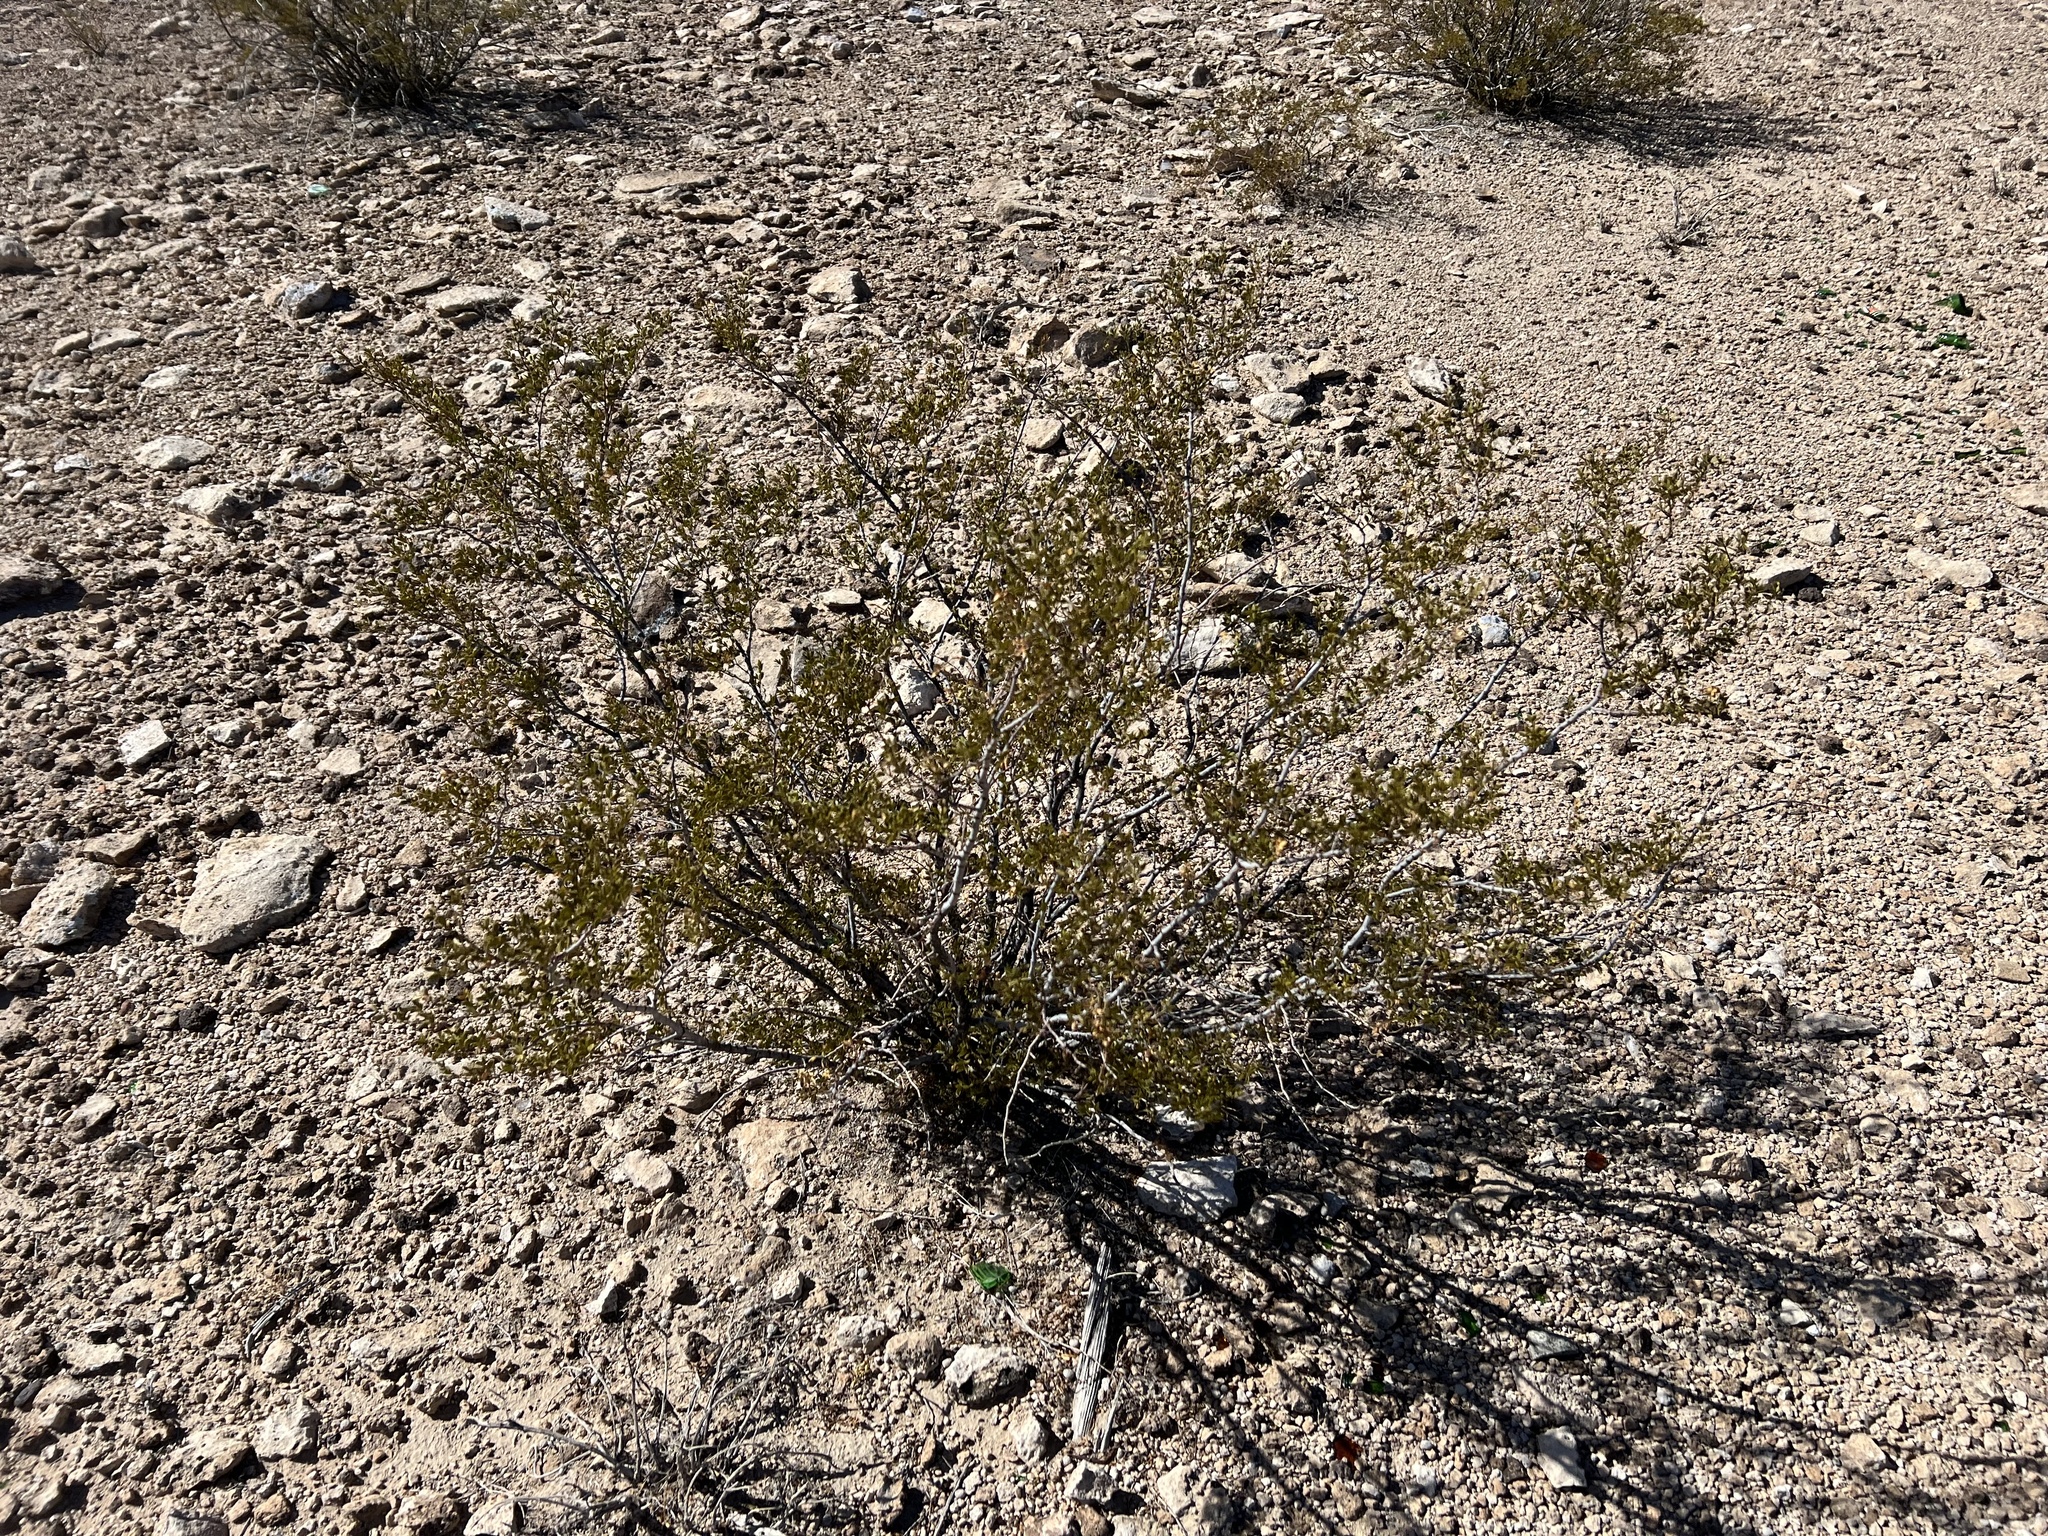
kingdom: Plantae
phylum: Tracheophyta
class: Magnoliopsida
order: Zygophyllales
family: Zygophyllaceae
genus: Larrea
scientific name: Larrea tridentata
